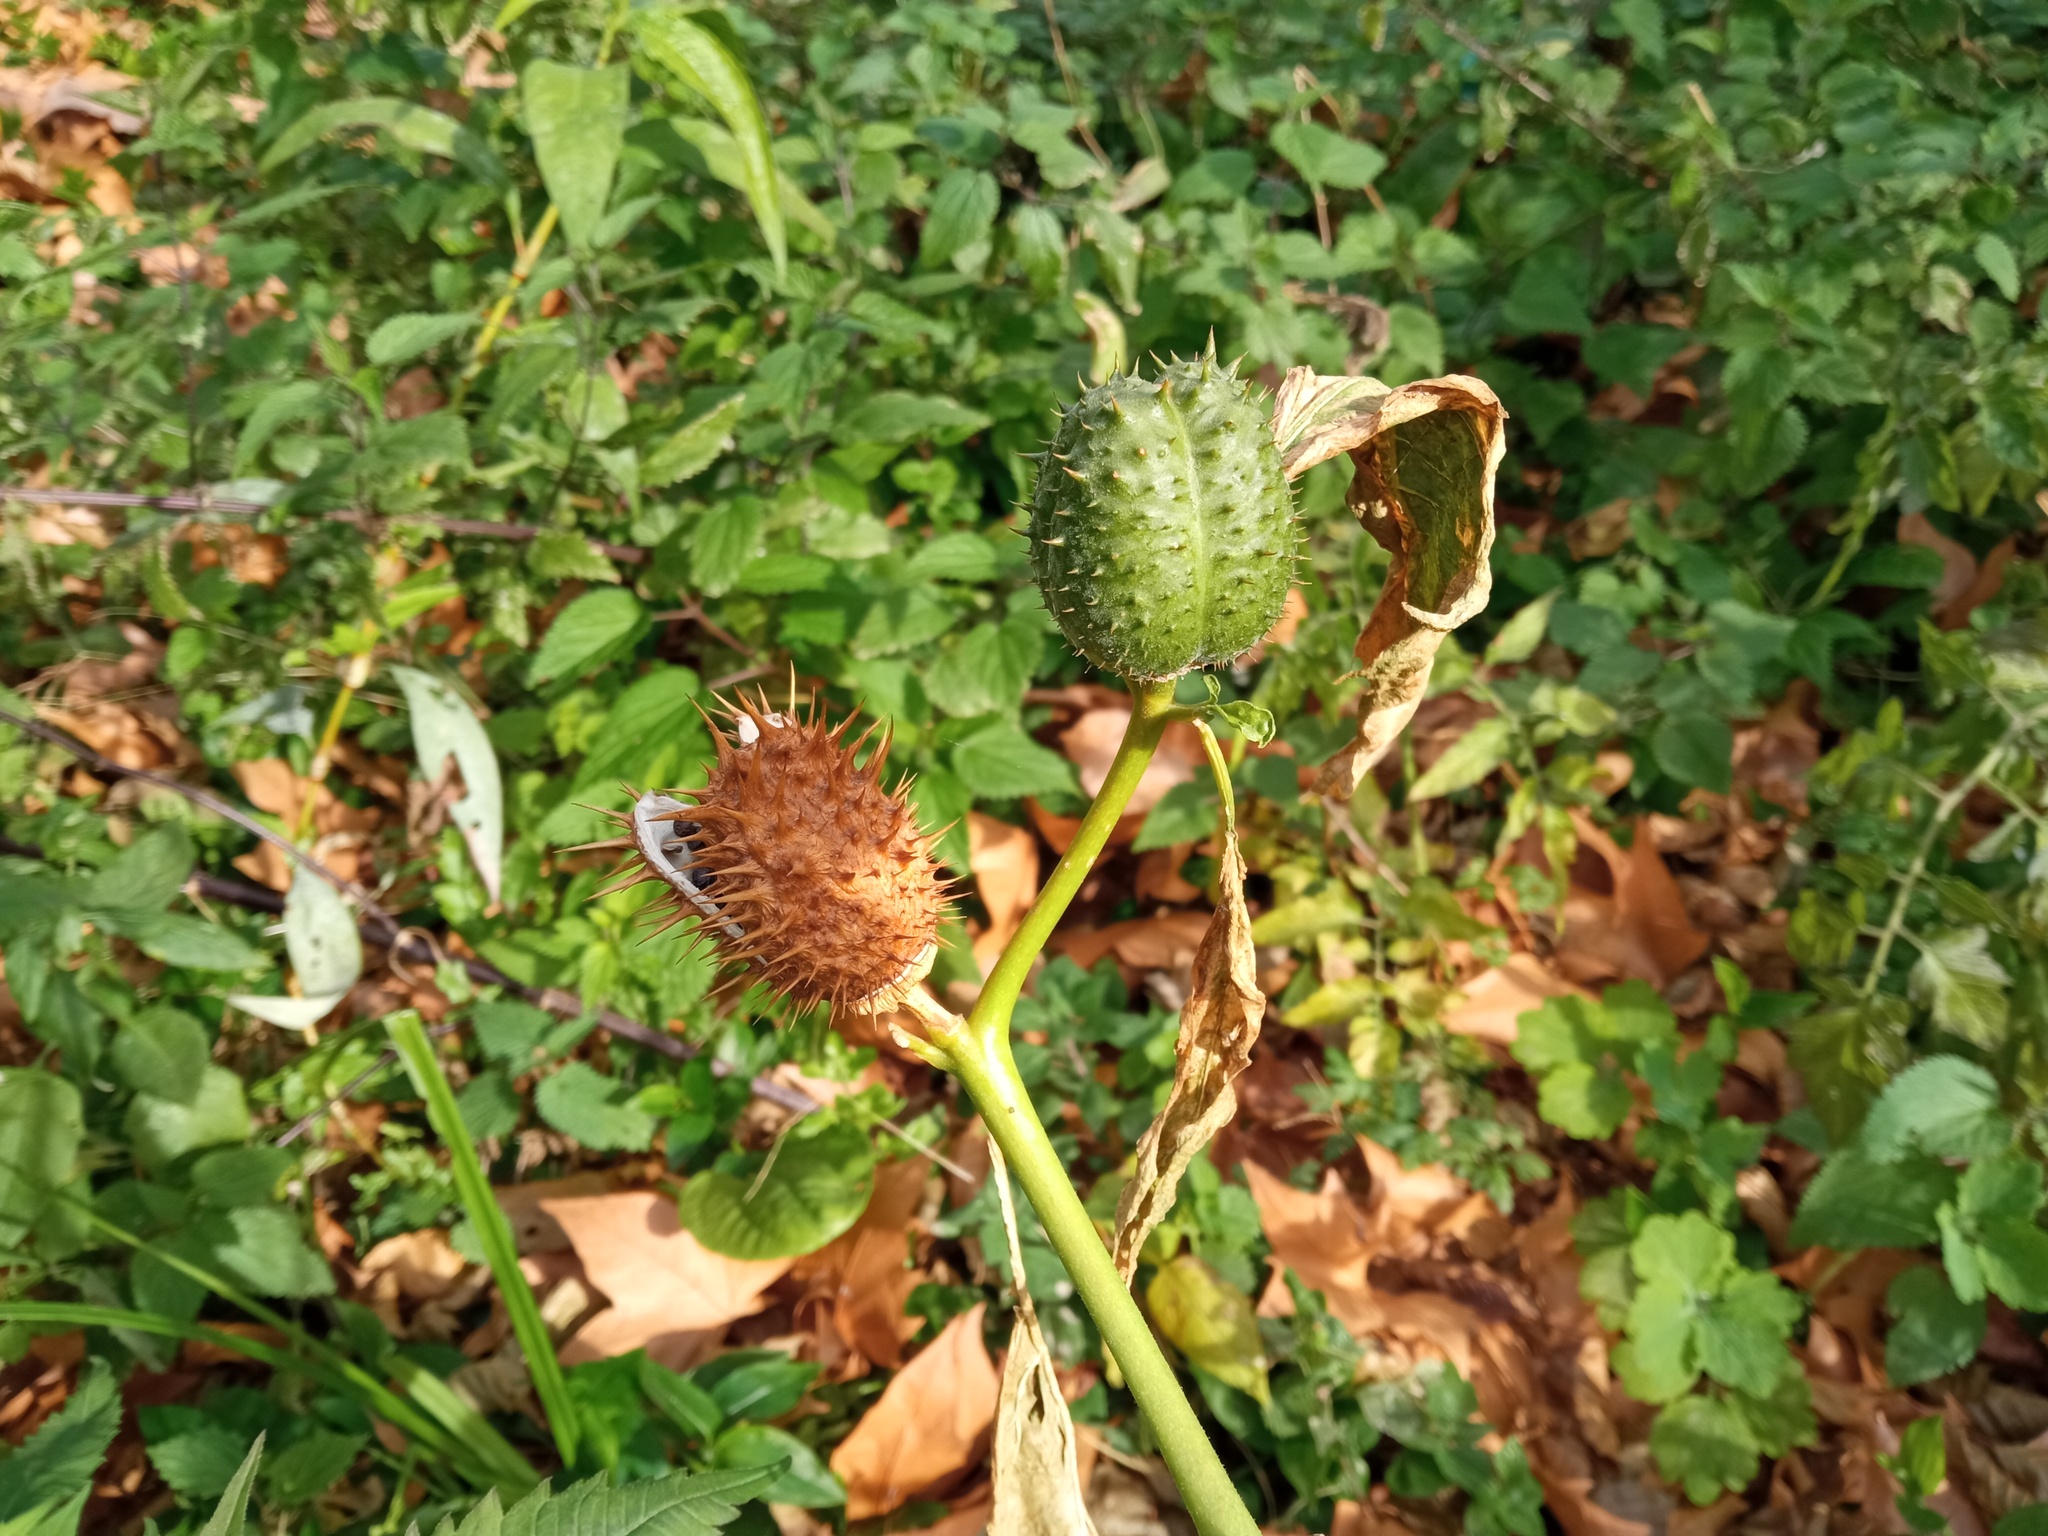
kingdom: Plantae
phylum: Tracheophyta
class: Magnoliopsida
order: Solanales
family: Solanaceae
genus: Datura
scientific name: Datura stramonium
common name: Thorn-apple
